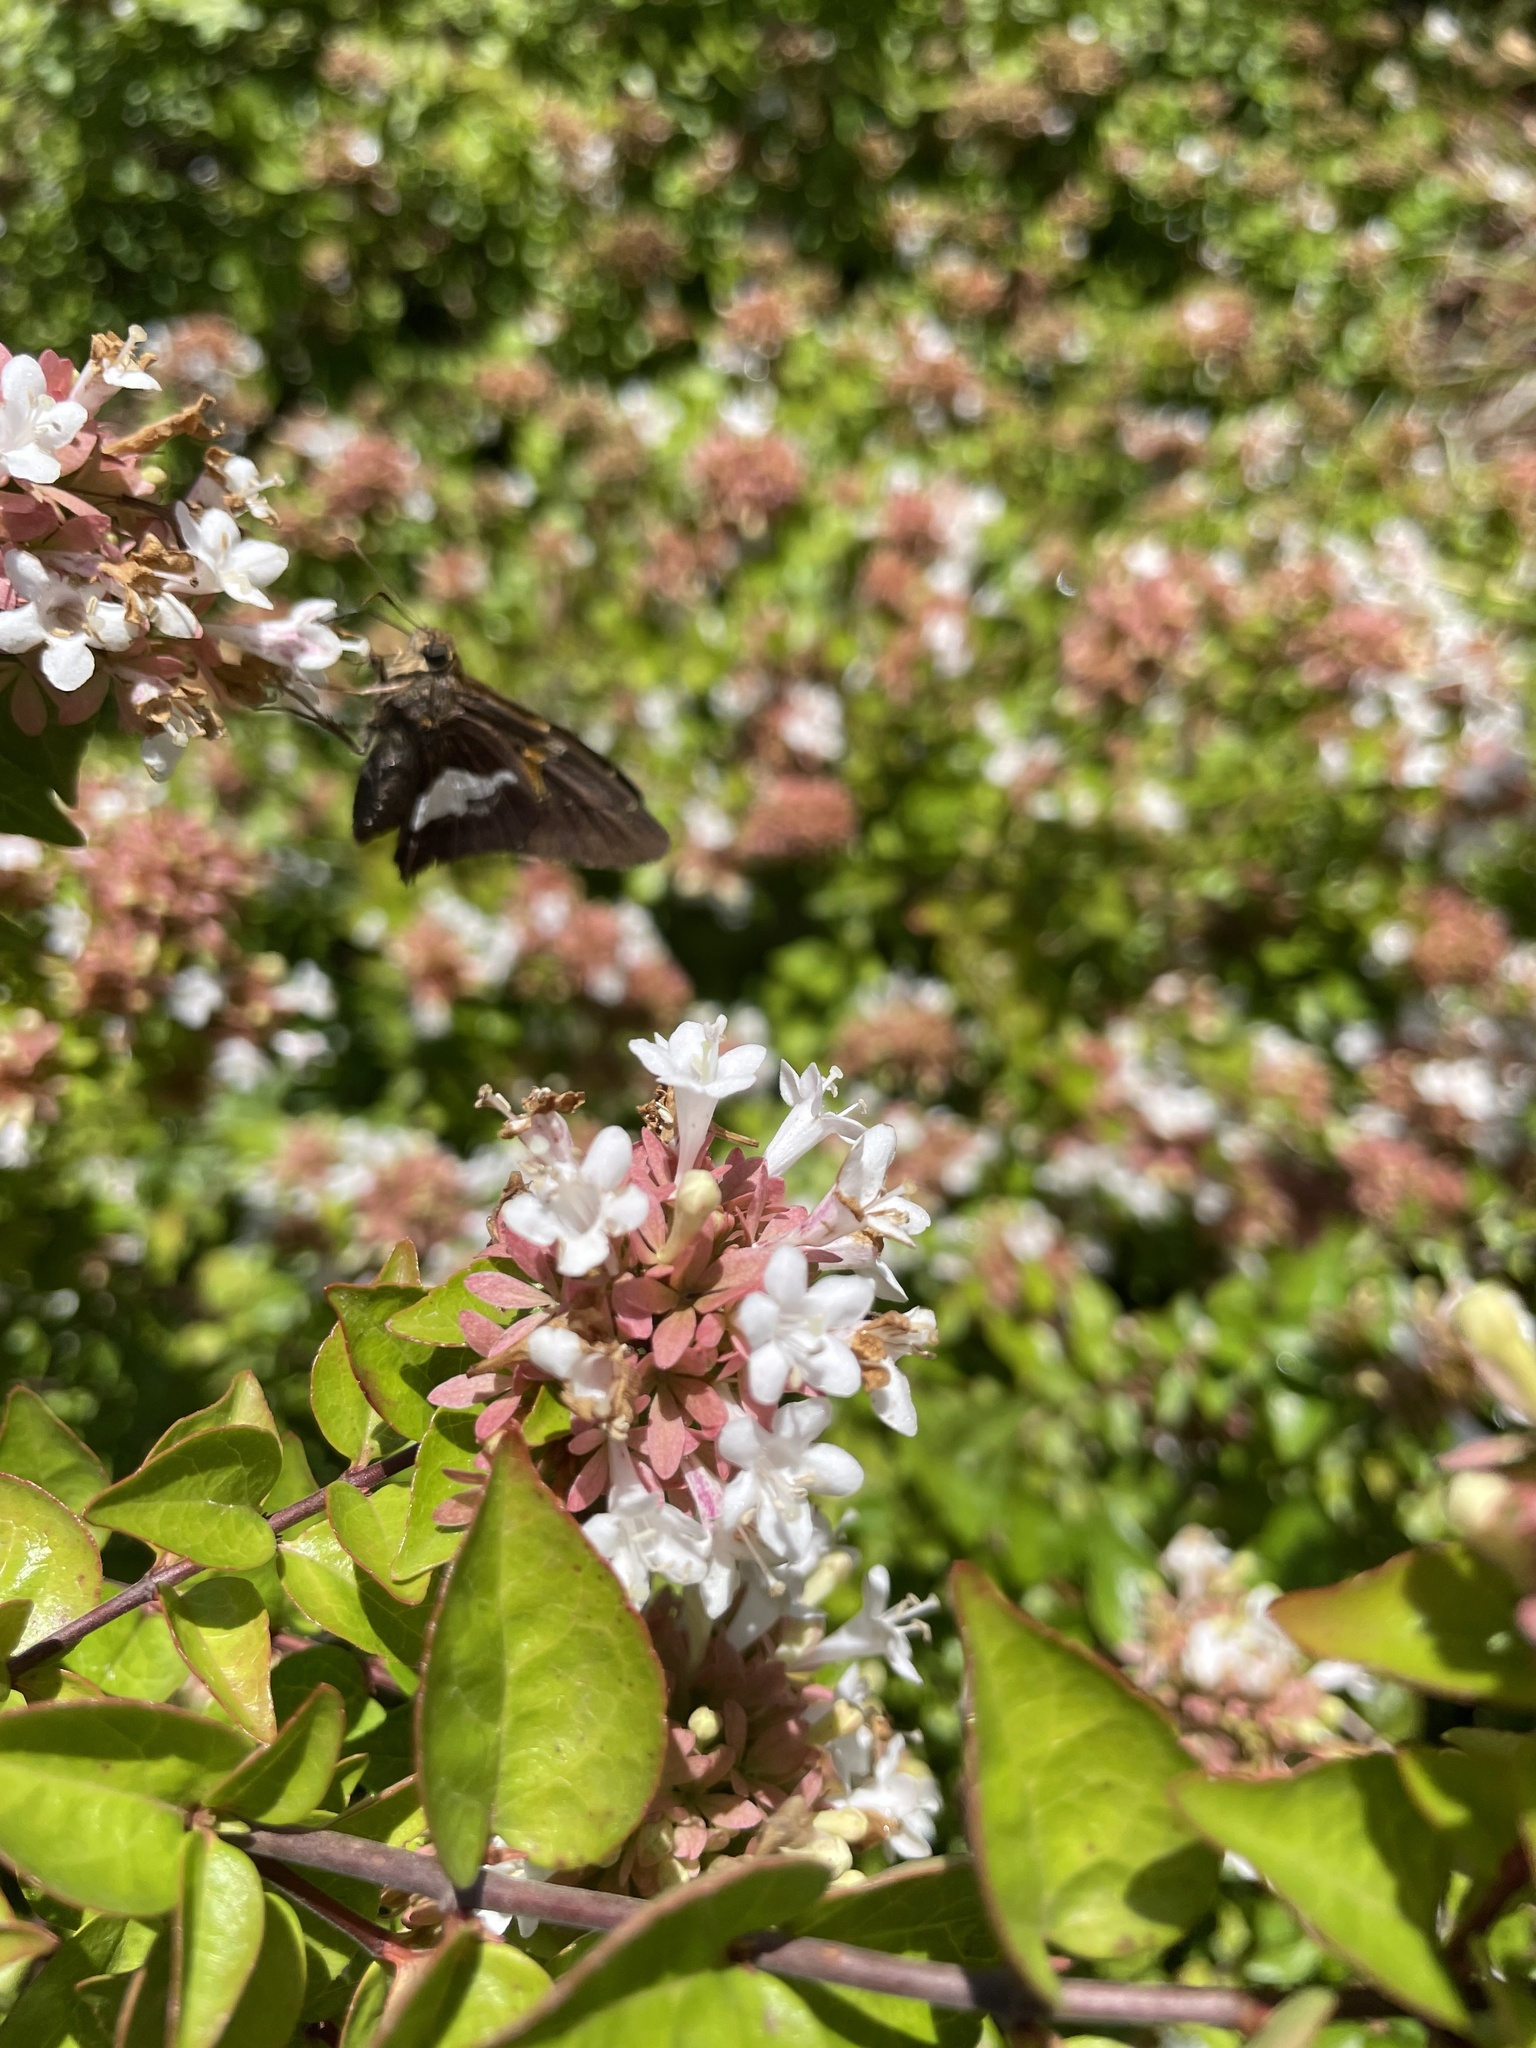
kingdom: Animalia
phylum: Arthropoda
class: Insecta
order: Lepidoptera
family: Hesperiidae
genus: Epargyreus
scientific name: Epargyreus clarus
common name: Silver-spotted skipper
